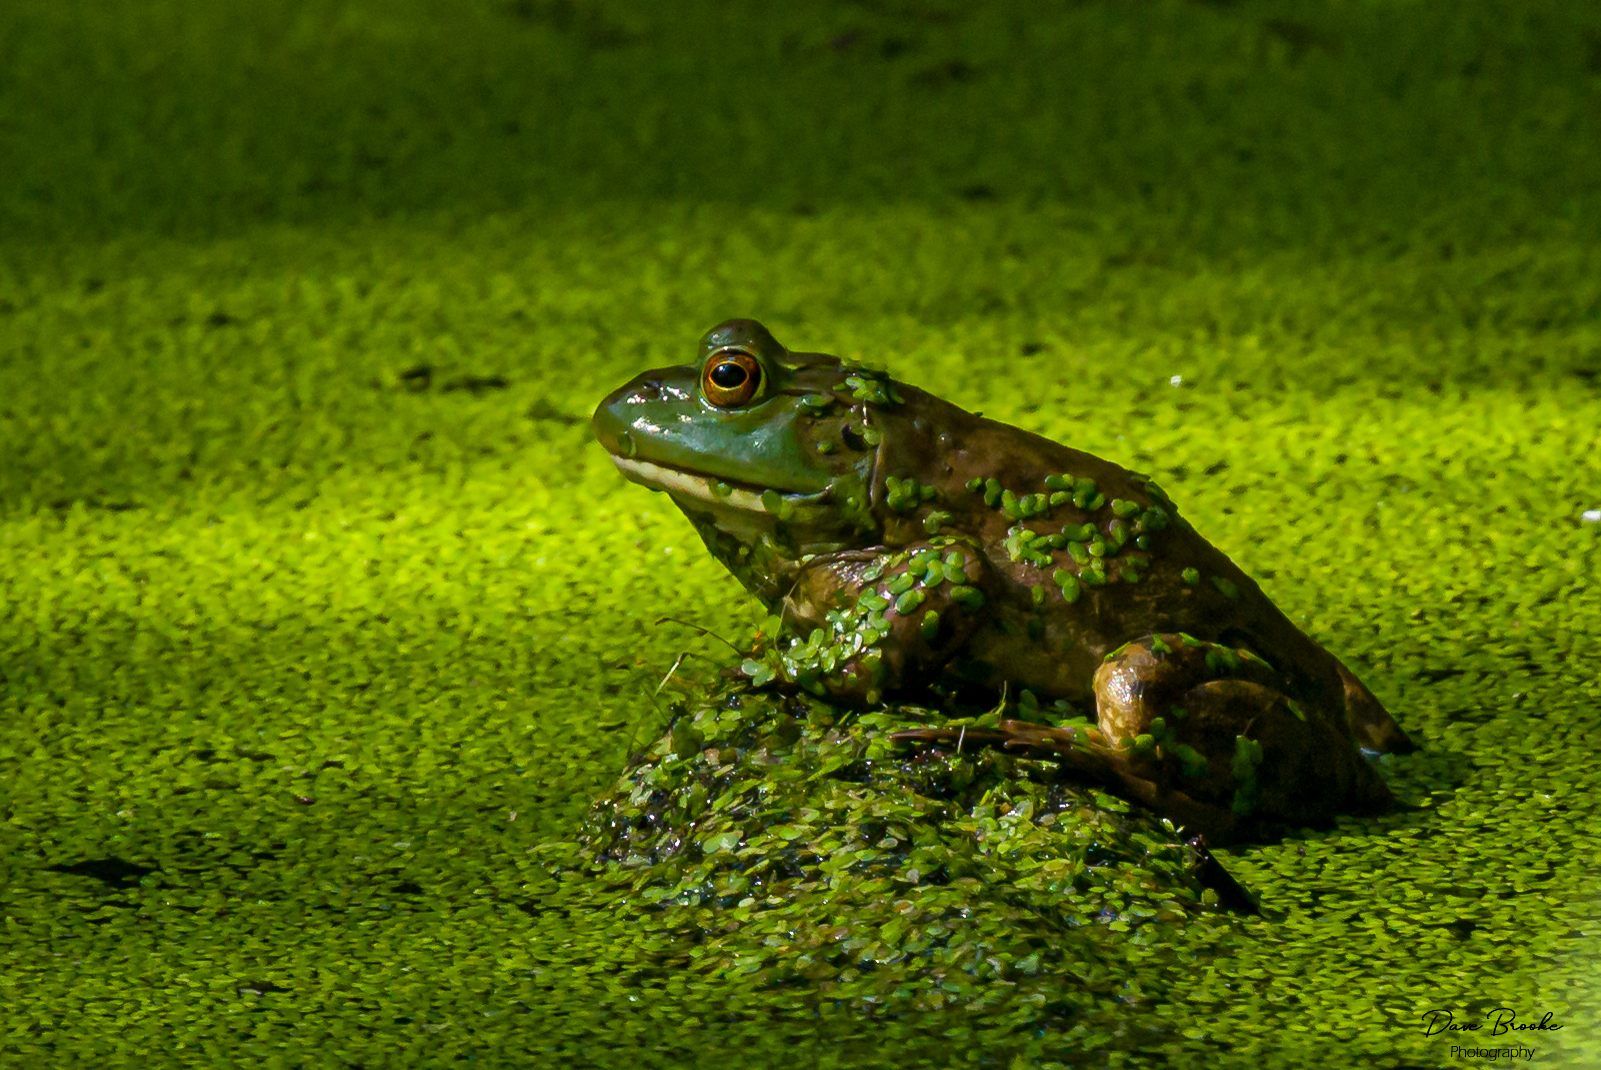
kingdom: Animalia
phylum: Chordata
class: Amphibia
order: Anura
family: Ranidae
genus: Lithobates
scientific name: Lithobates catesbeianus
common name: American bullfrog
